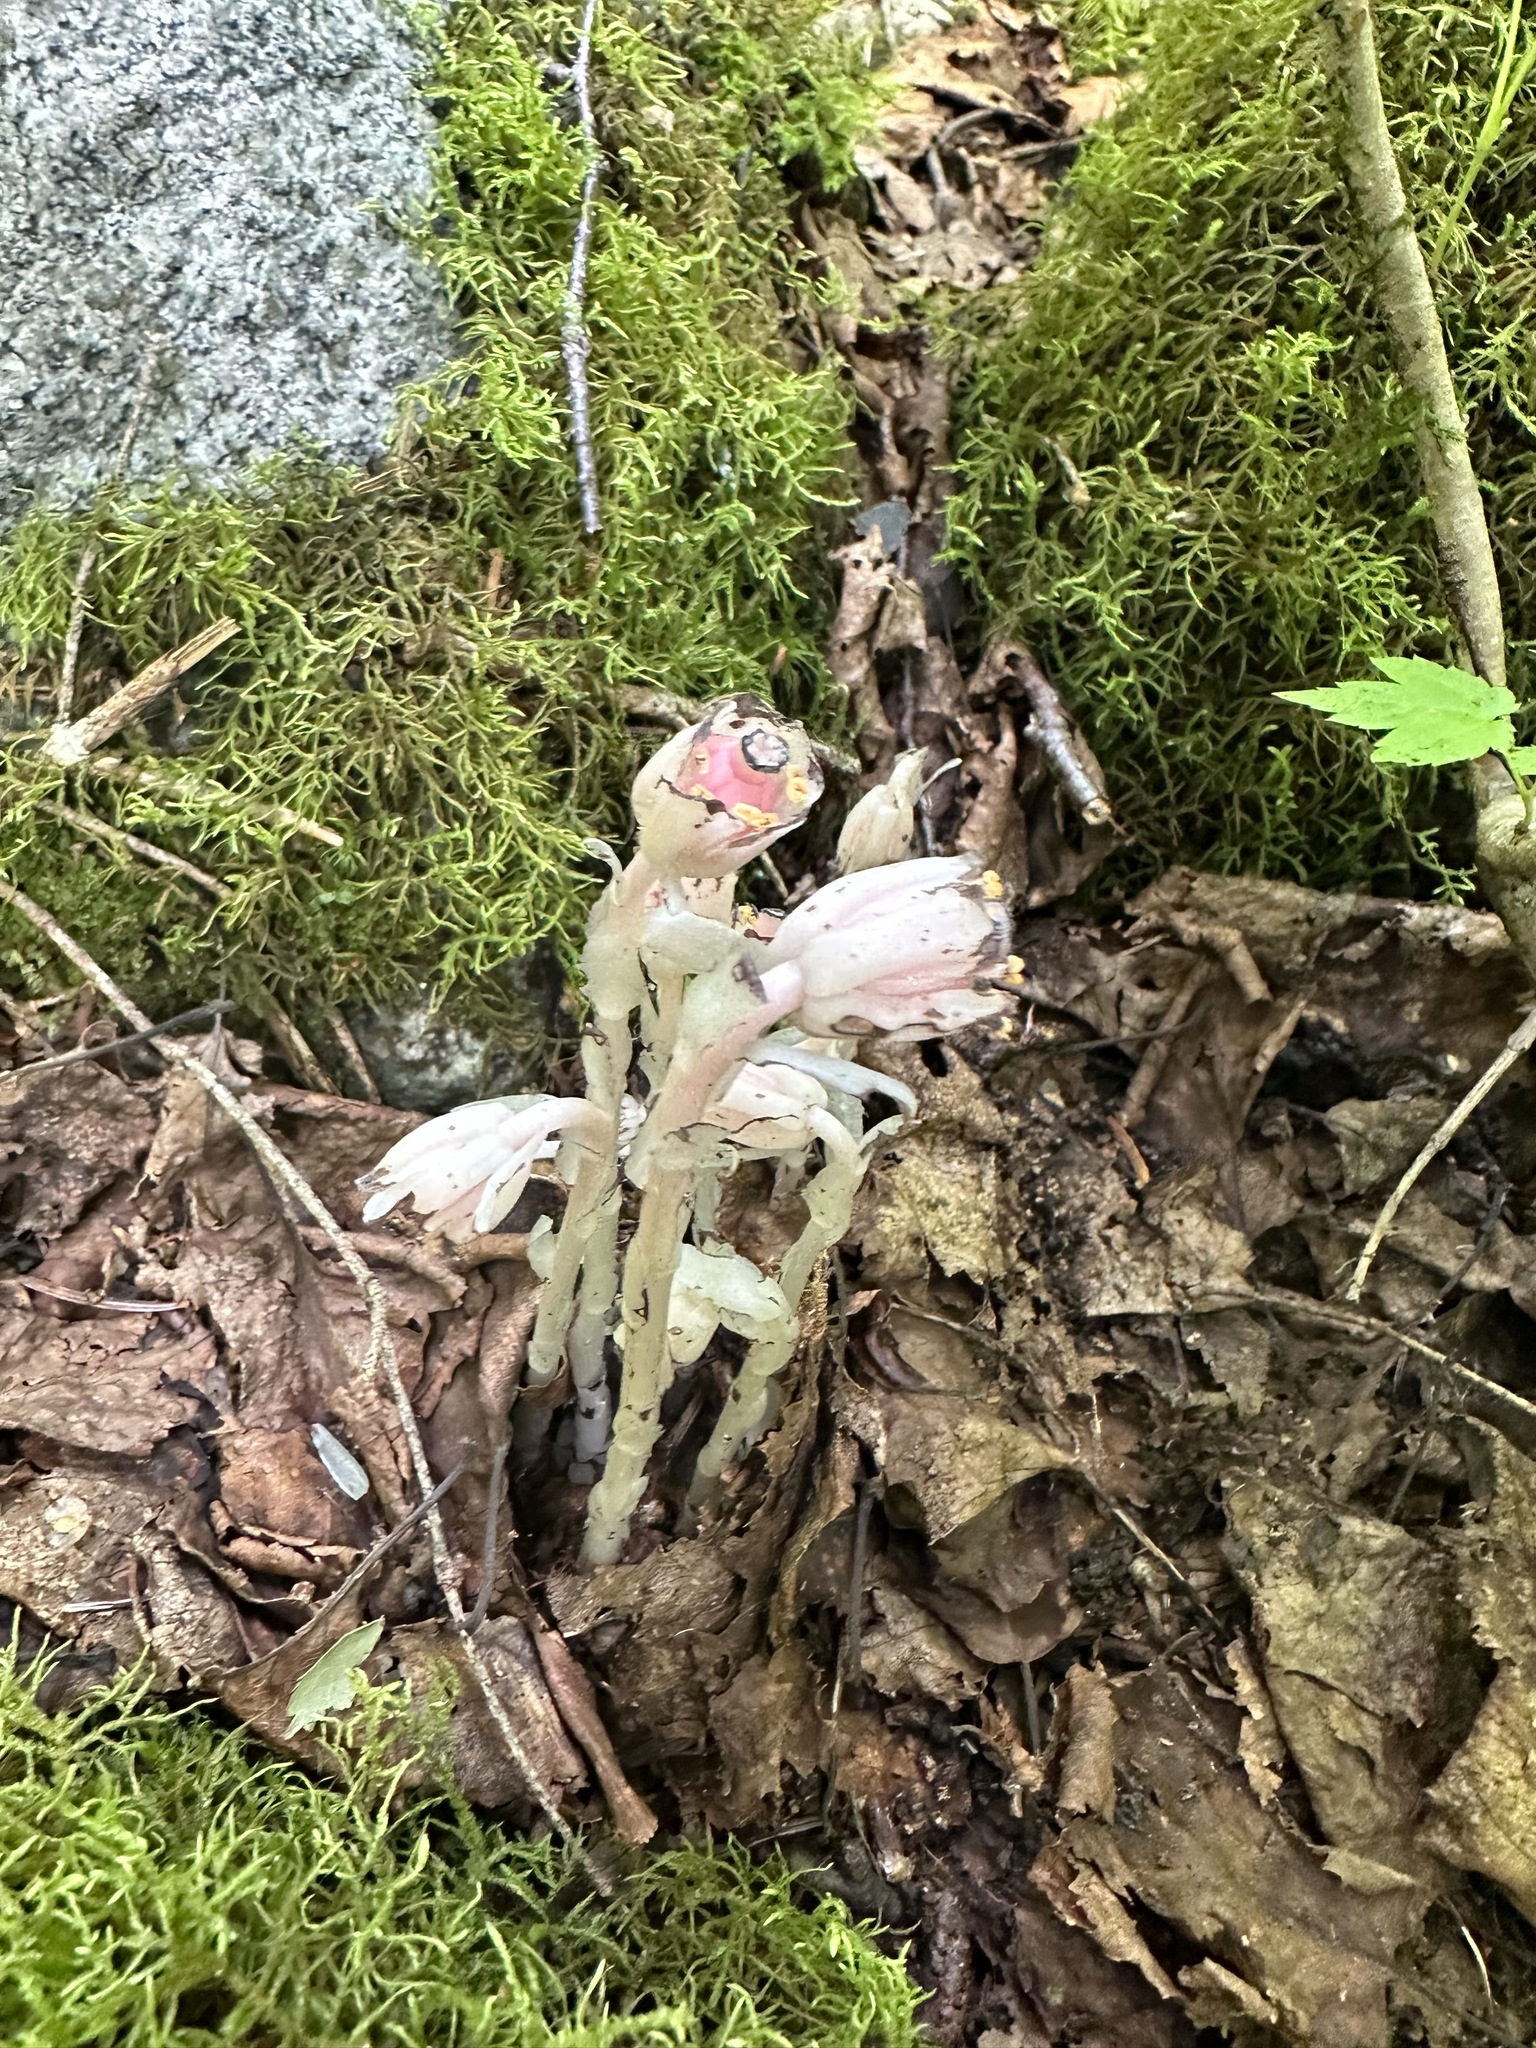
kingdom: Plantae
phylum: Tracheophyta
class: Magnoliopsida
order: Ericales
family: Ericaceae
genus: Monotropa
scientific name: Monotropa uniflora
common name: Convulsion root
